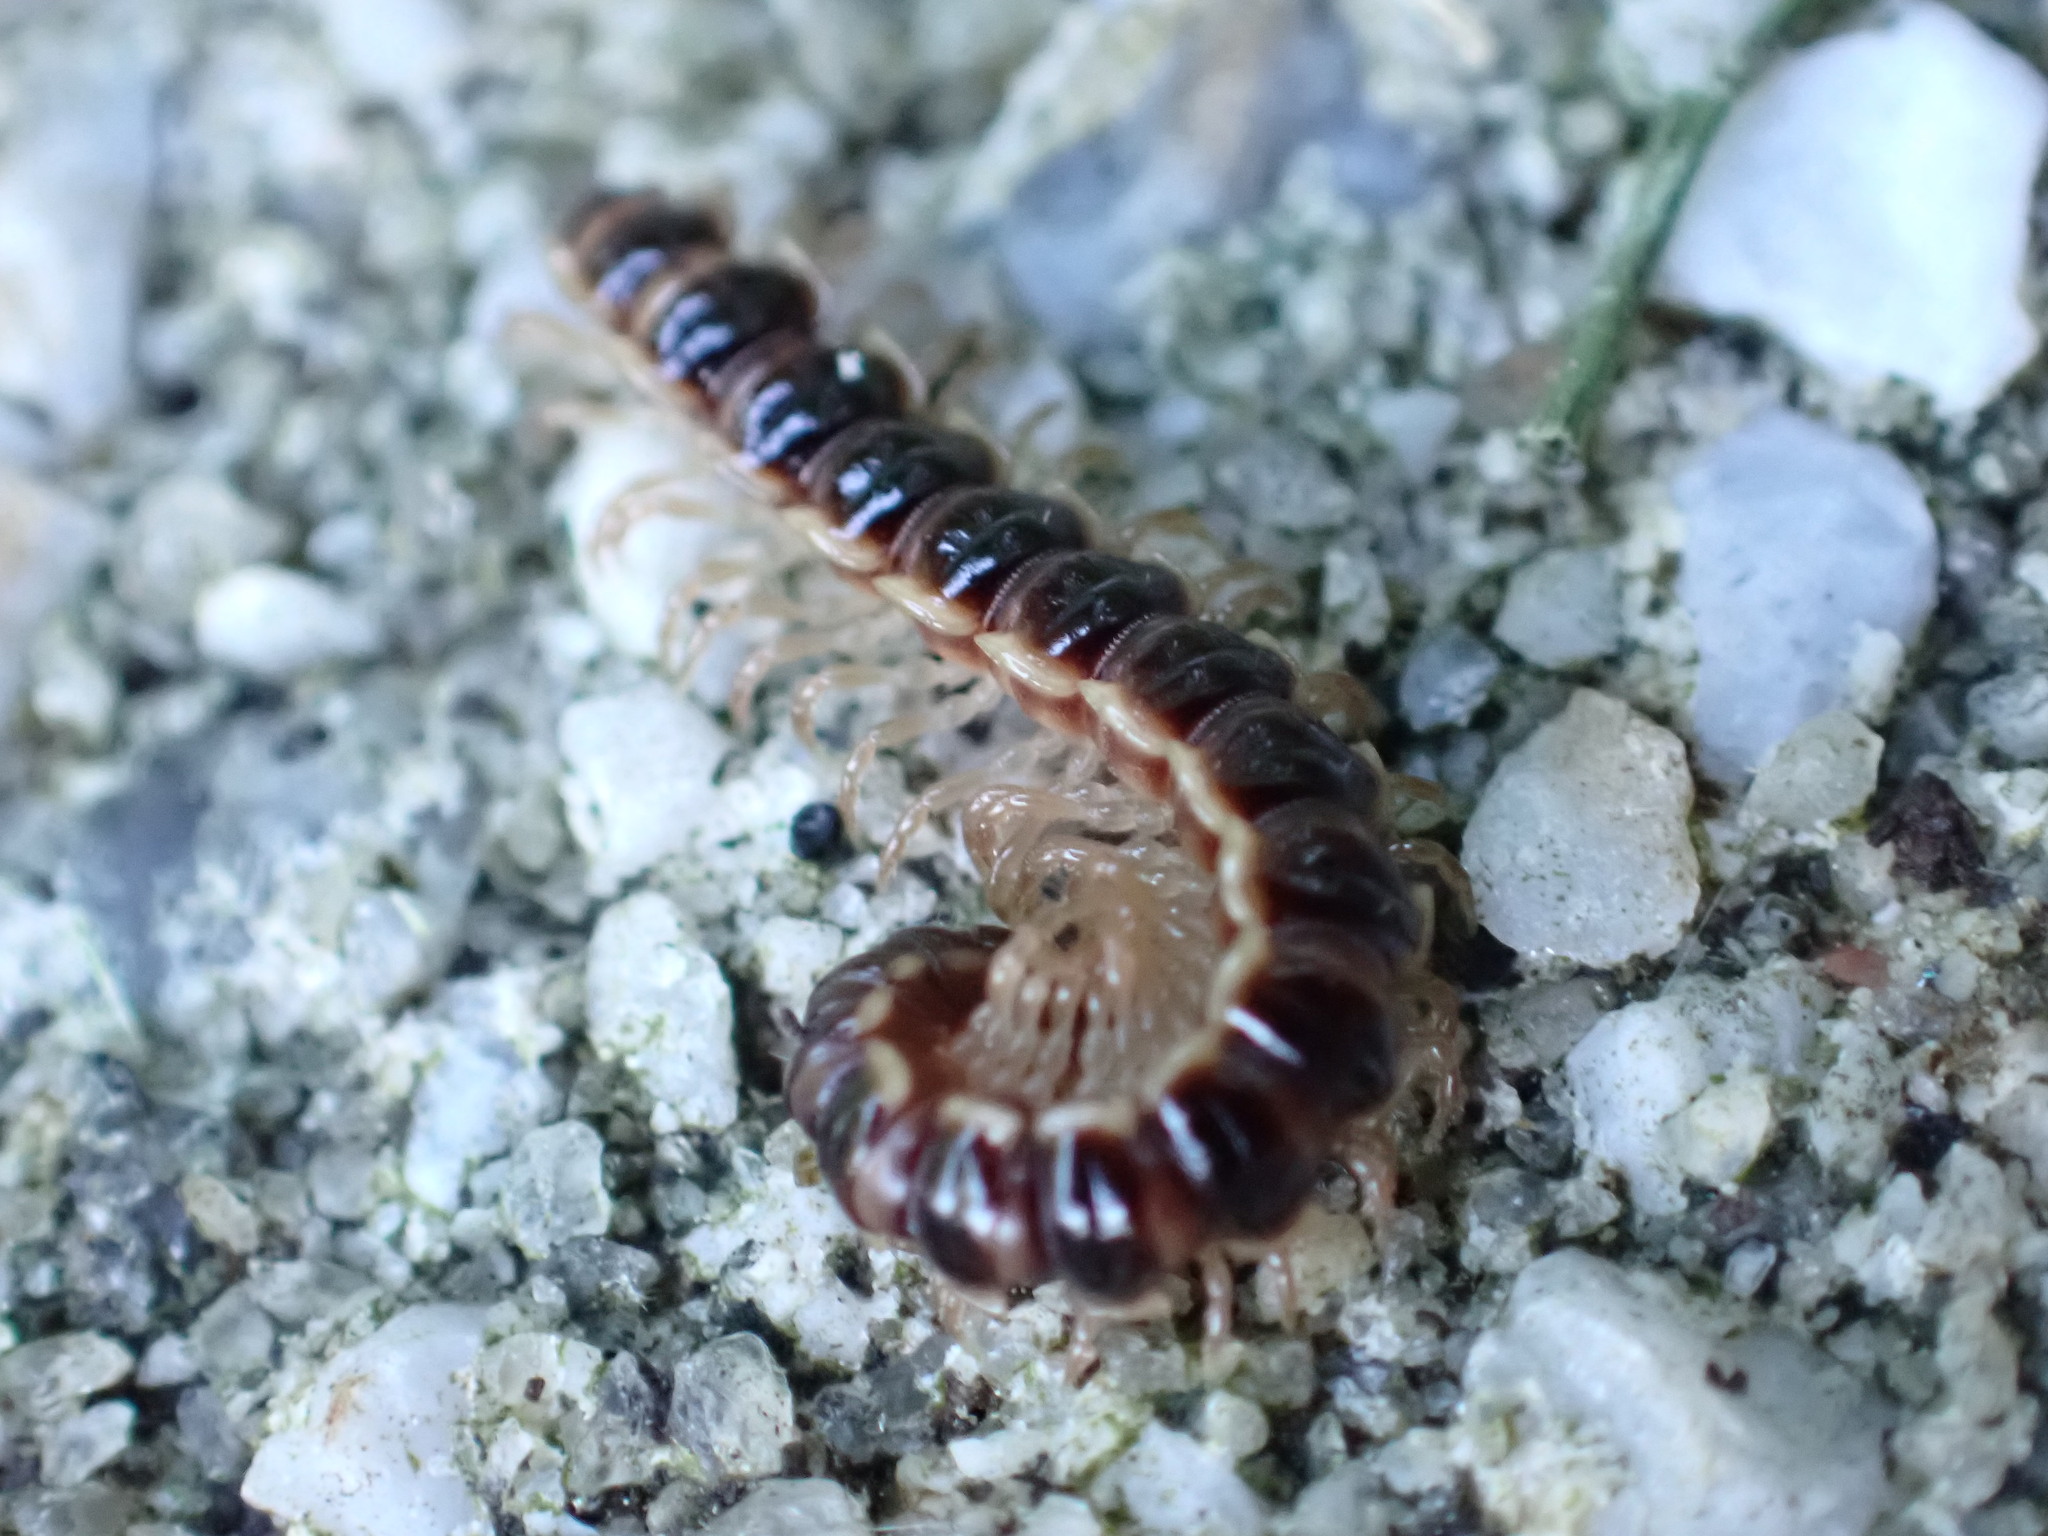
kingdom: Animalia
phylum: Arthropoda
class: Diplopoda
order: Polydesmida
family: Paradoxosomatidae
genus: Oxidus
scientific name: Oxidus gracilis
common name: Greenhouse millipede
